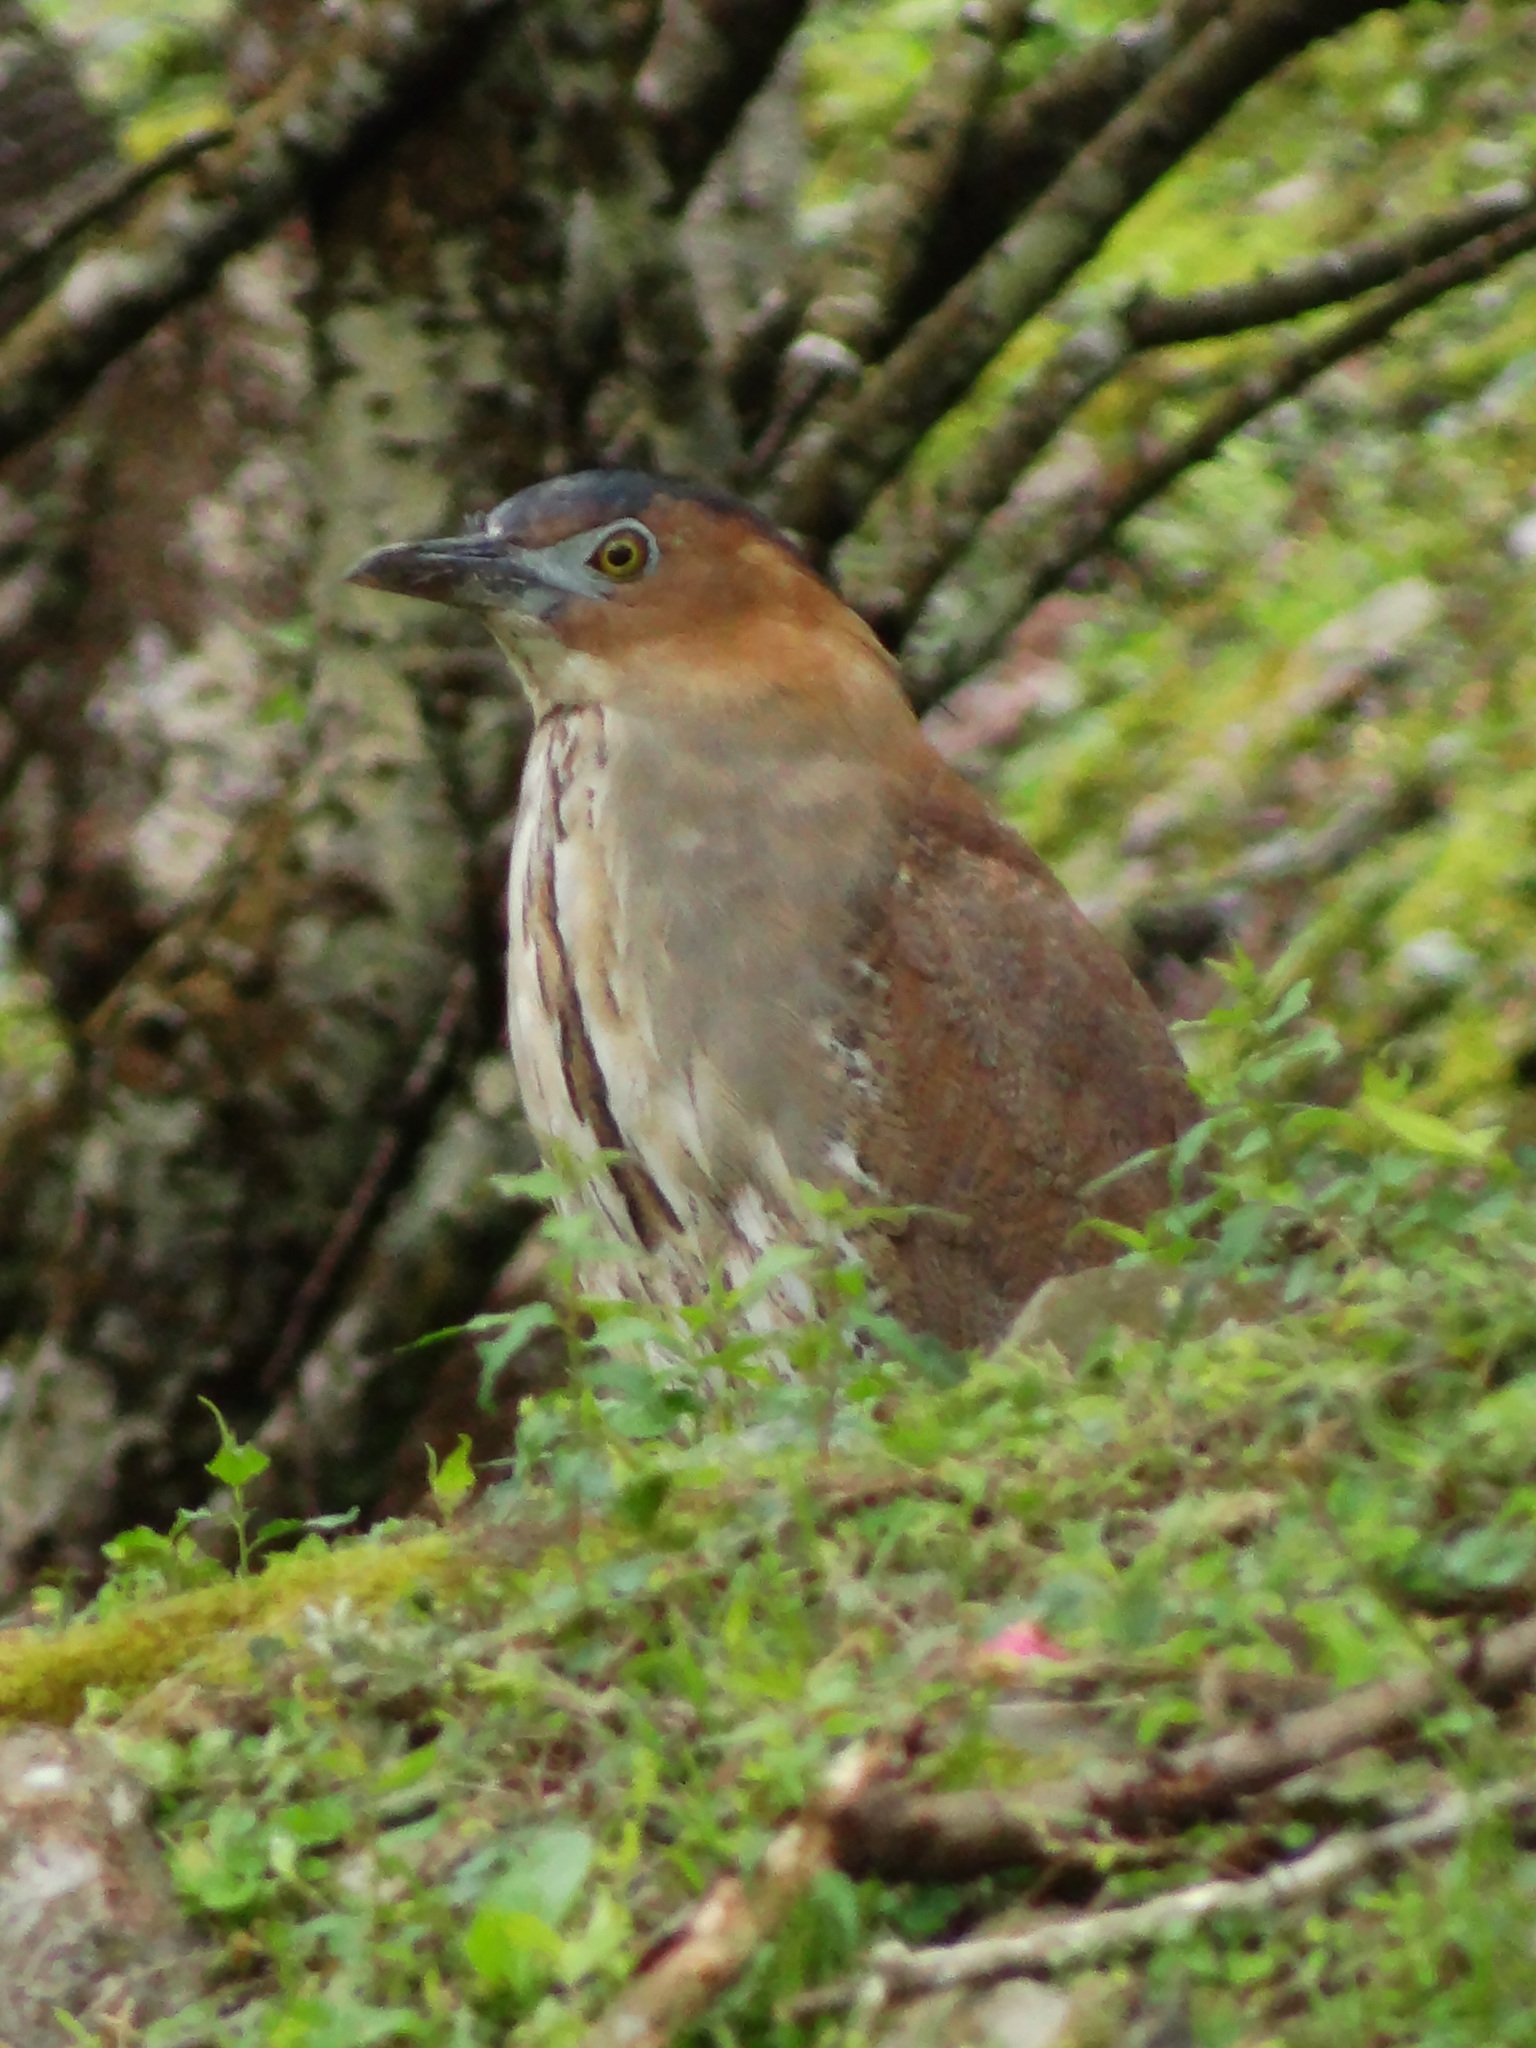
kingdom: Animalia
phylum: Chordata
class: Aves
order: Pelecaniformes
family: Ardeidae
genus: Gorsachius
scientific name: Gorsachius melanolophus
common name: Malayan night heron
